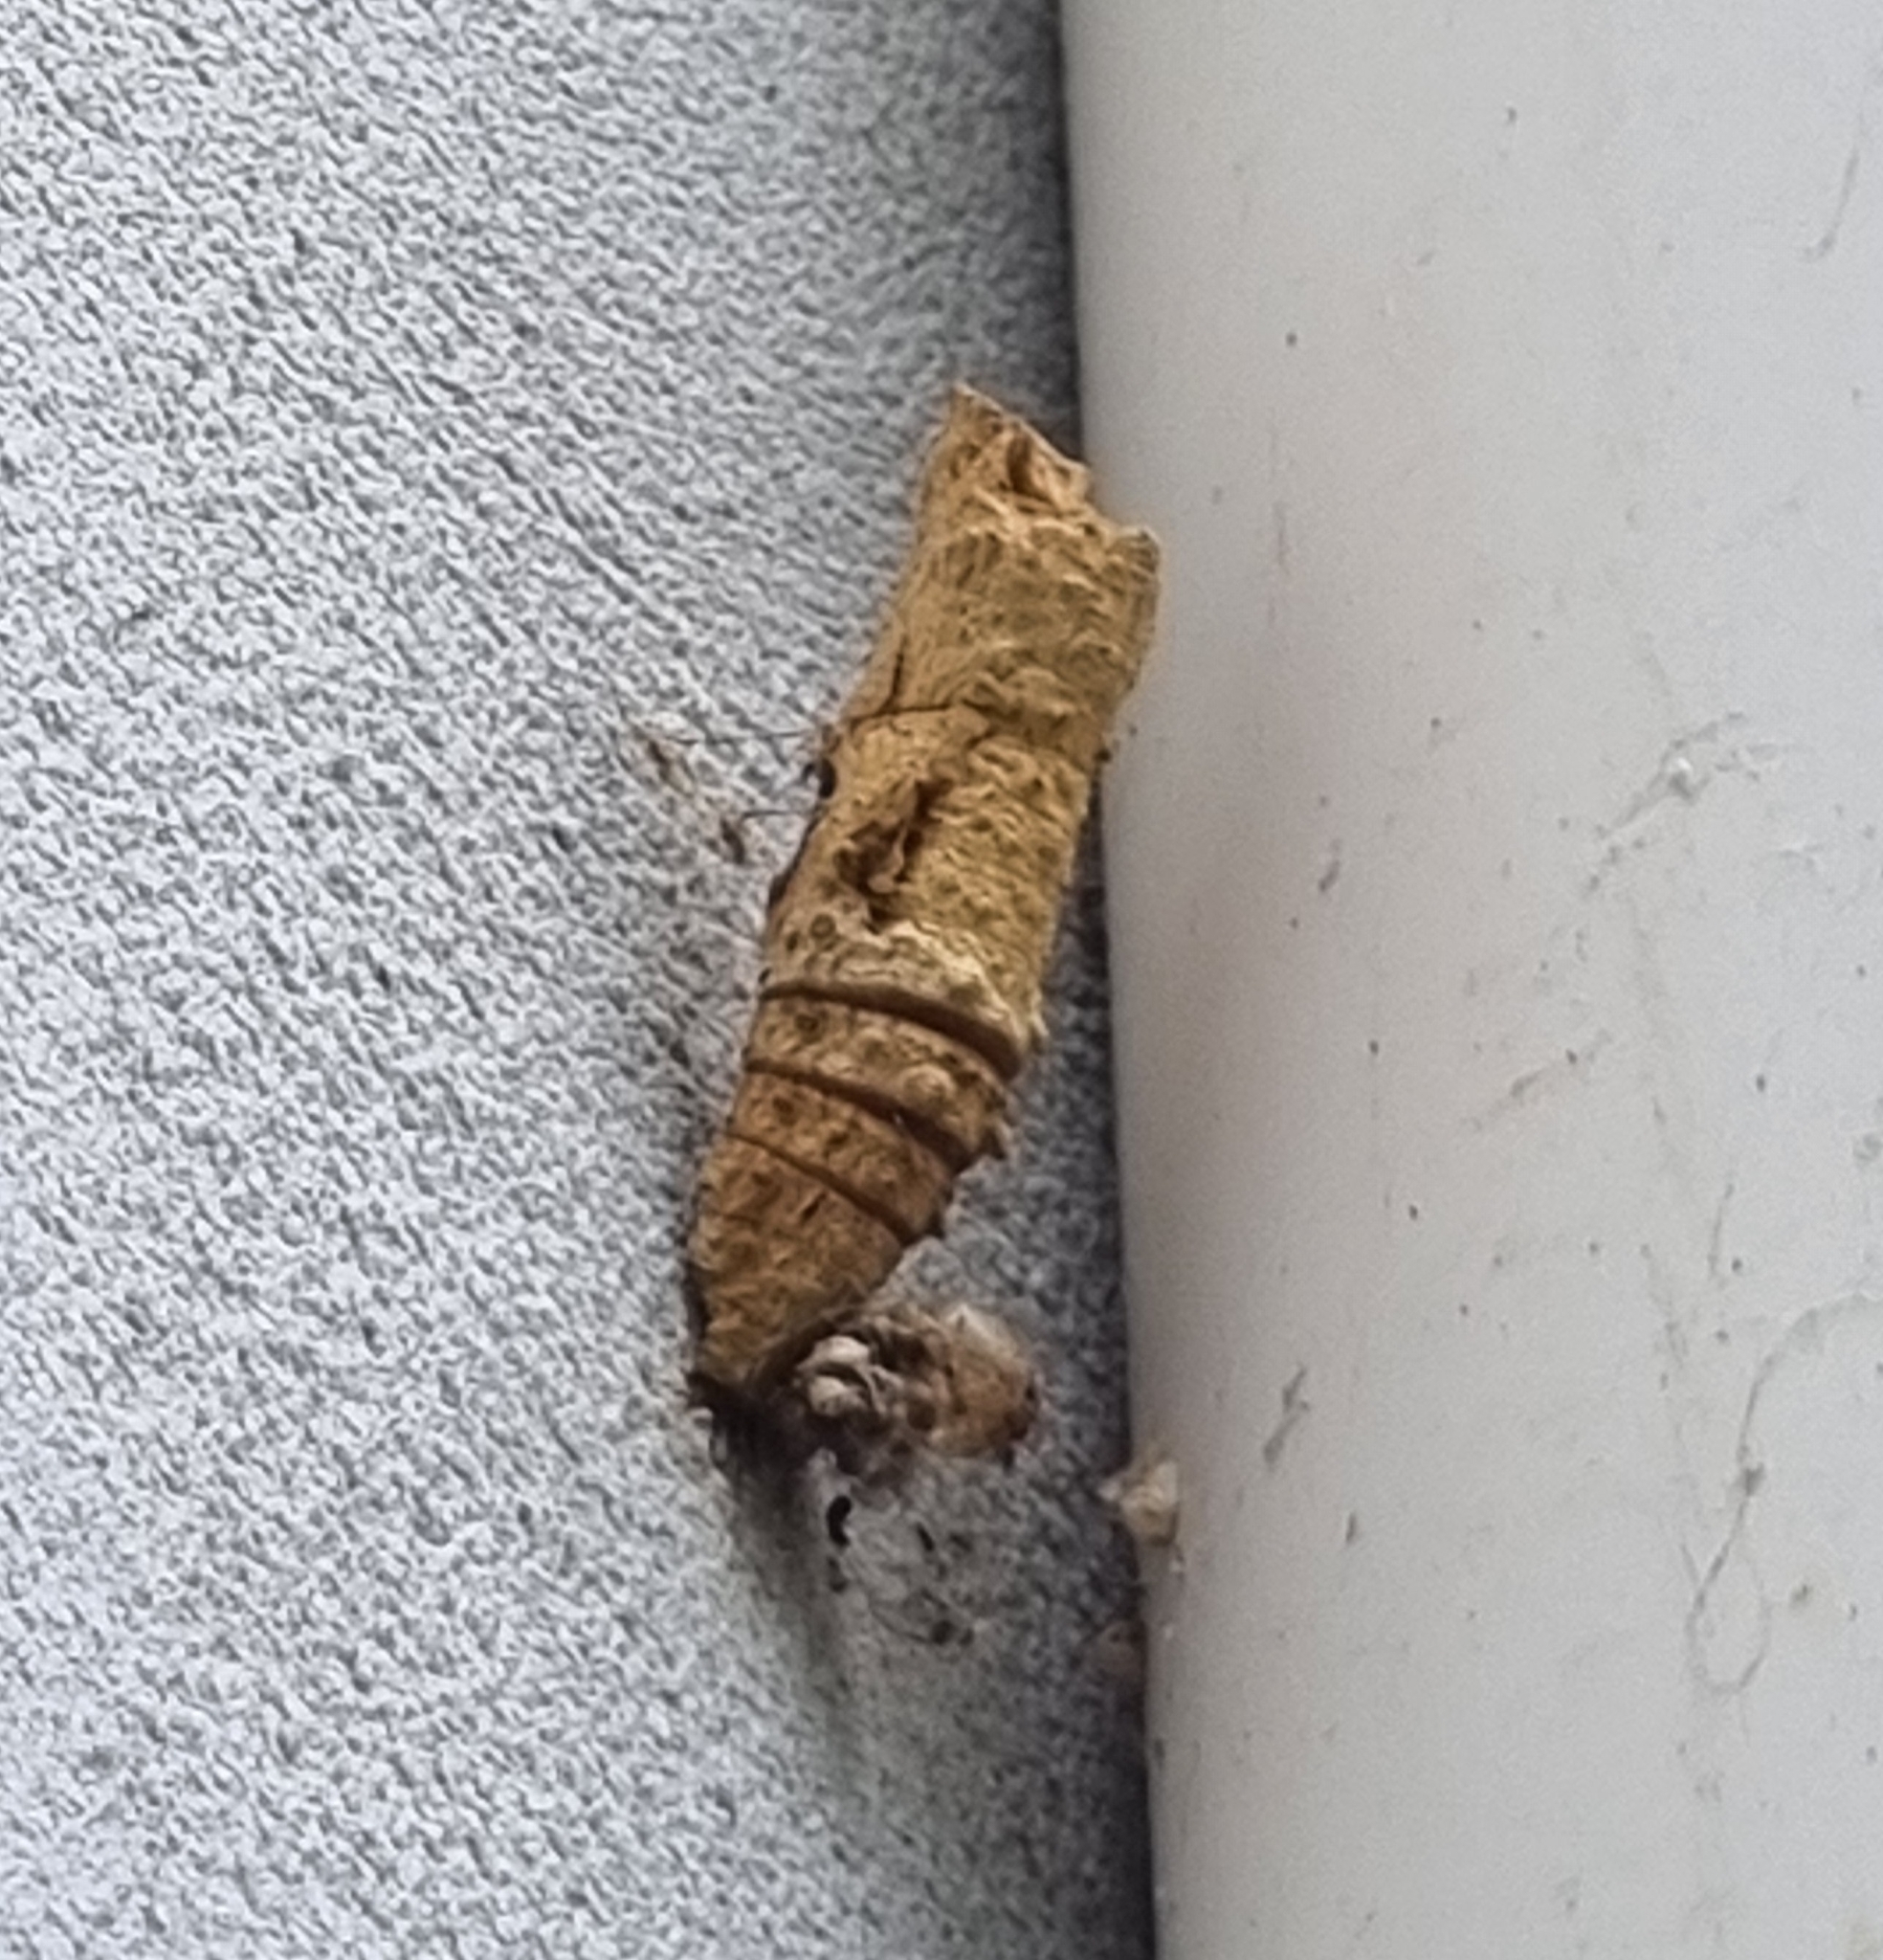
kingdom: Animalia
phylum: Arthropoda
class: Insecta
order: Lepidoptera
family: Papilionidae
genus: Papilio
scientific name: Papilio anchisiades
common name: Idaes swallowtail
